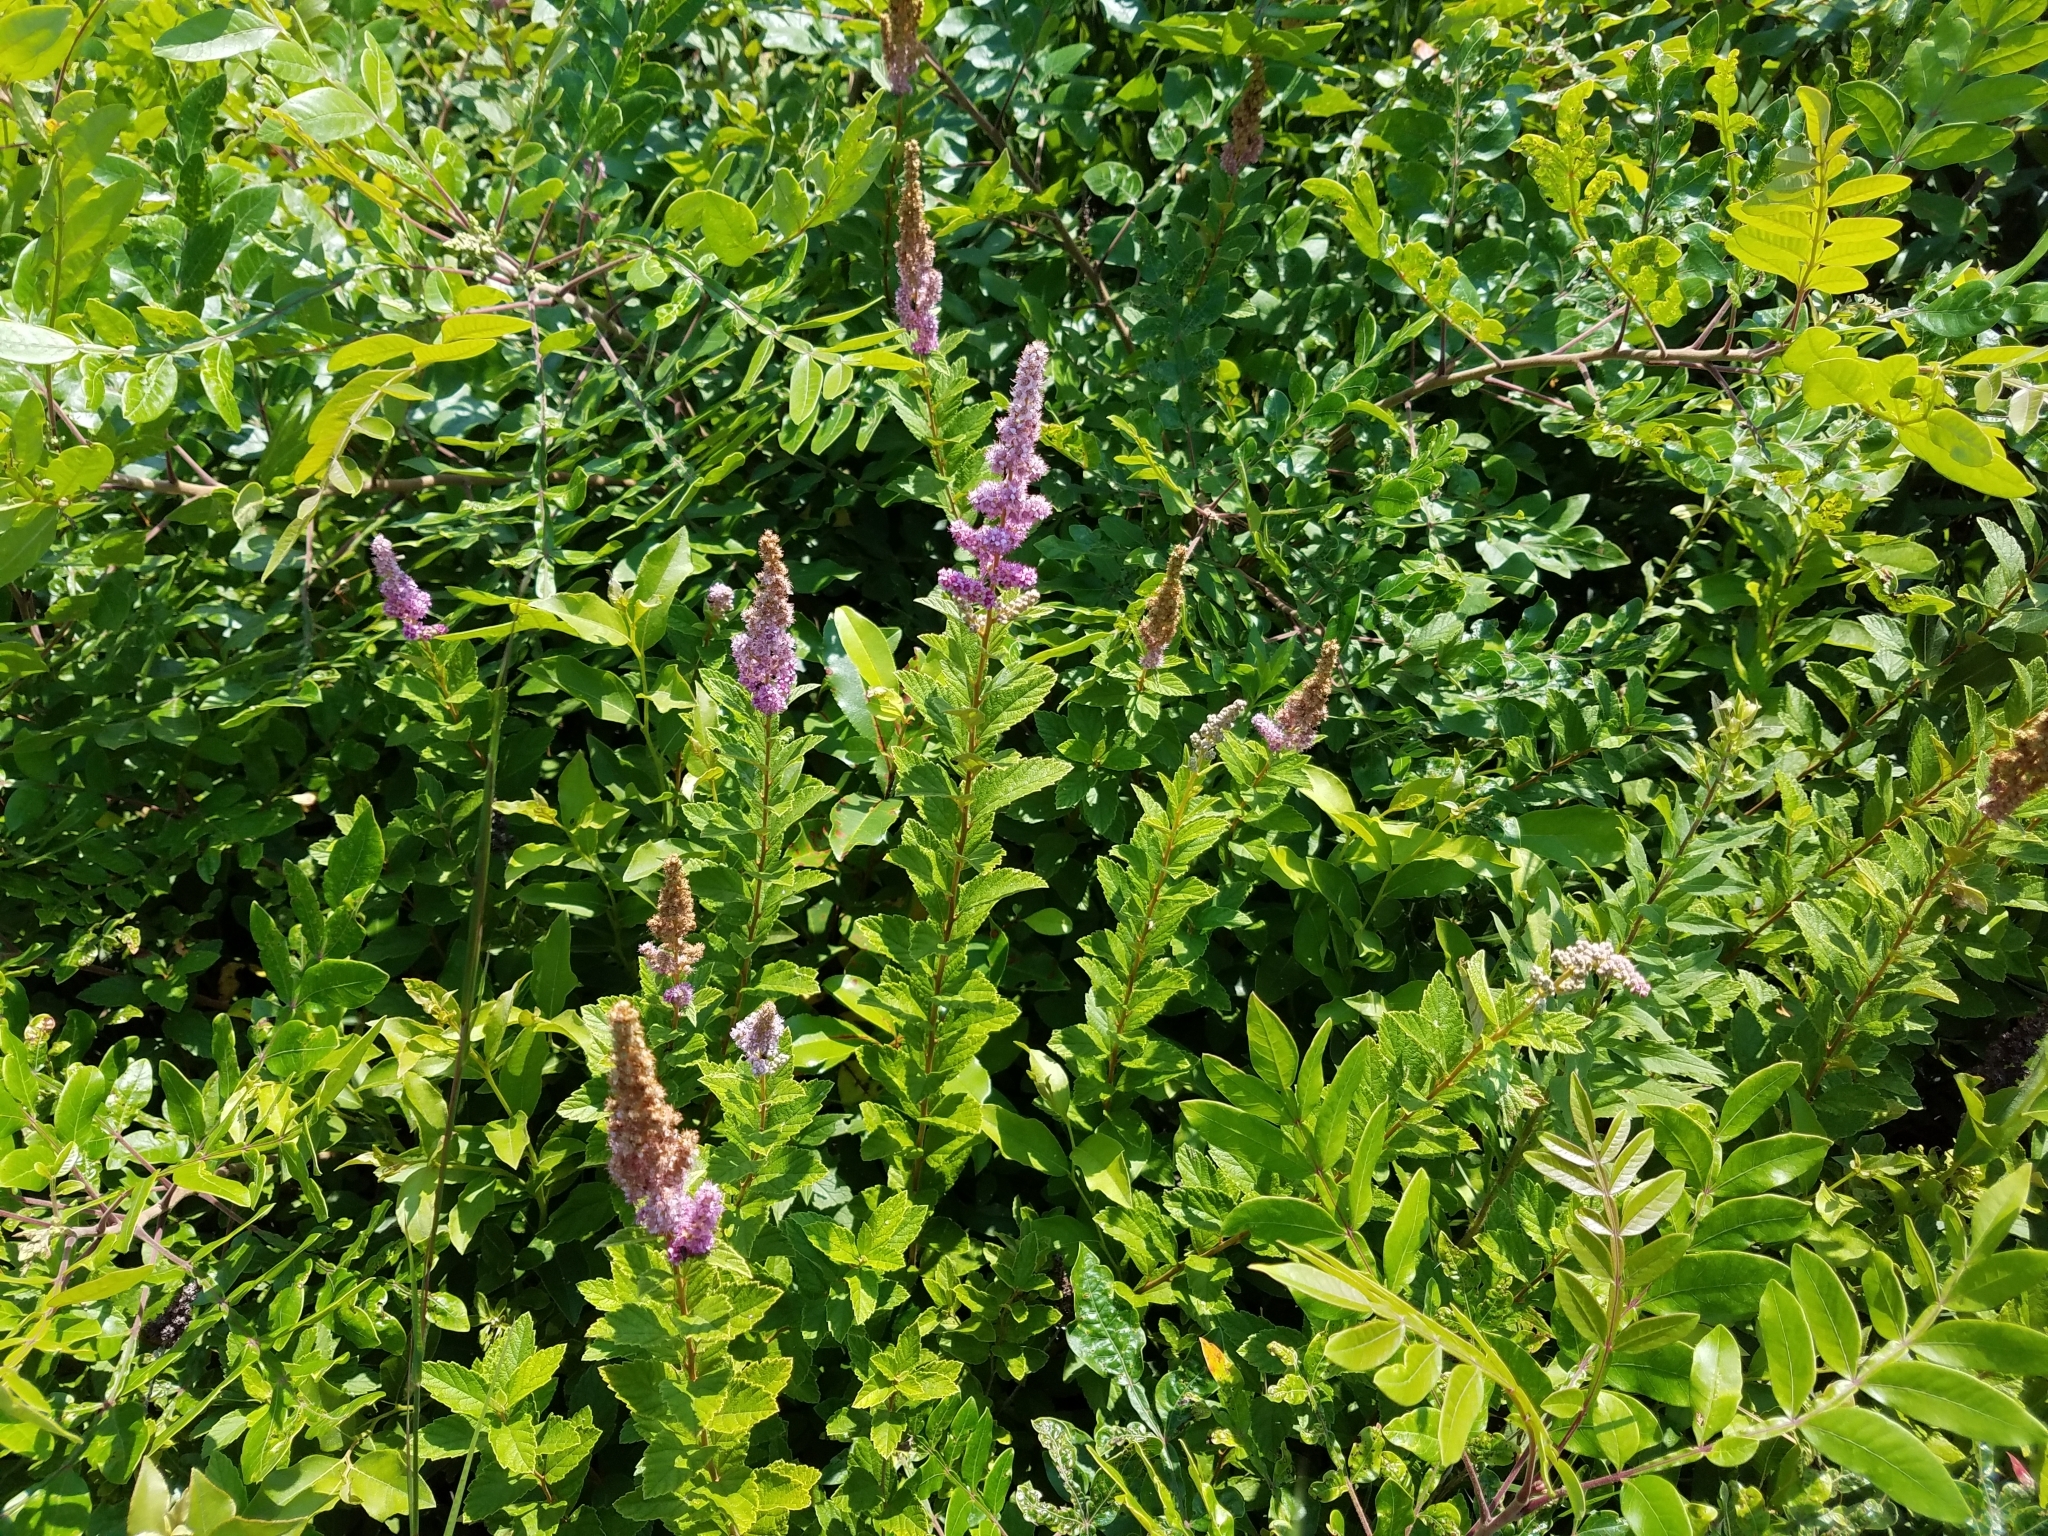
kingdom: Plantae
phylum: Tracheophyta
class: Magnoliopsida
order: Rosales
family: Rosaceae
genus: Spiraea
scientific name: Spiraea tomentosa
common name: Hardhack
